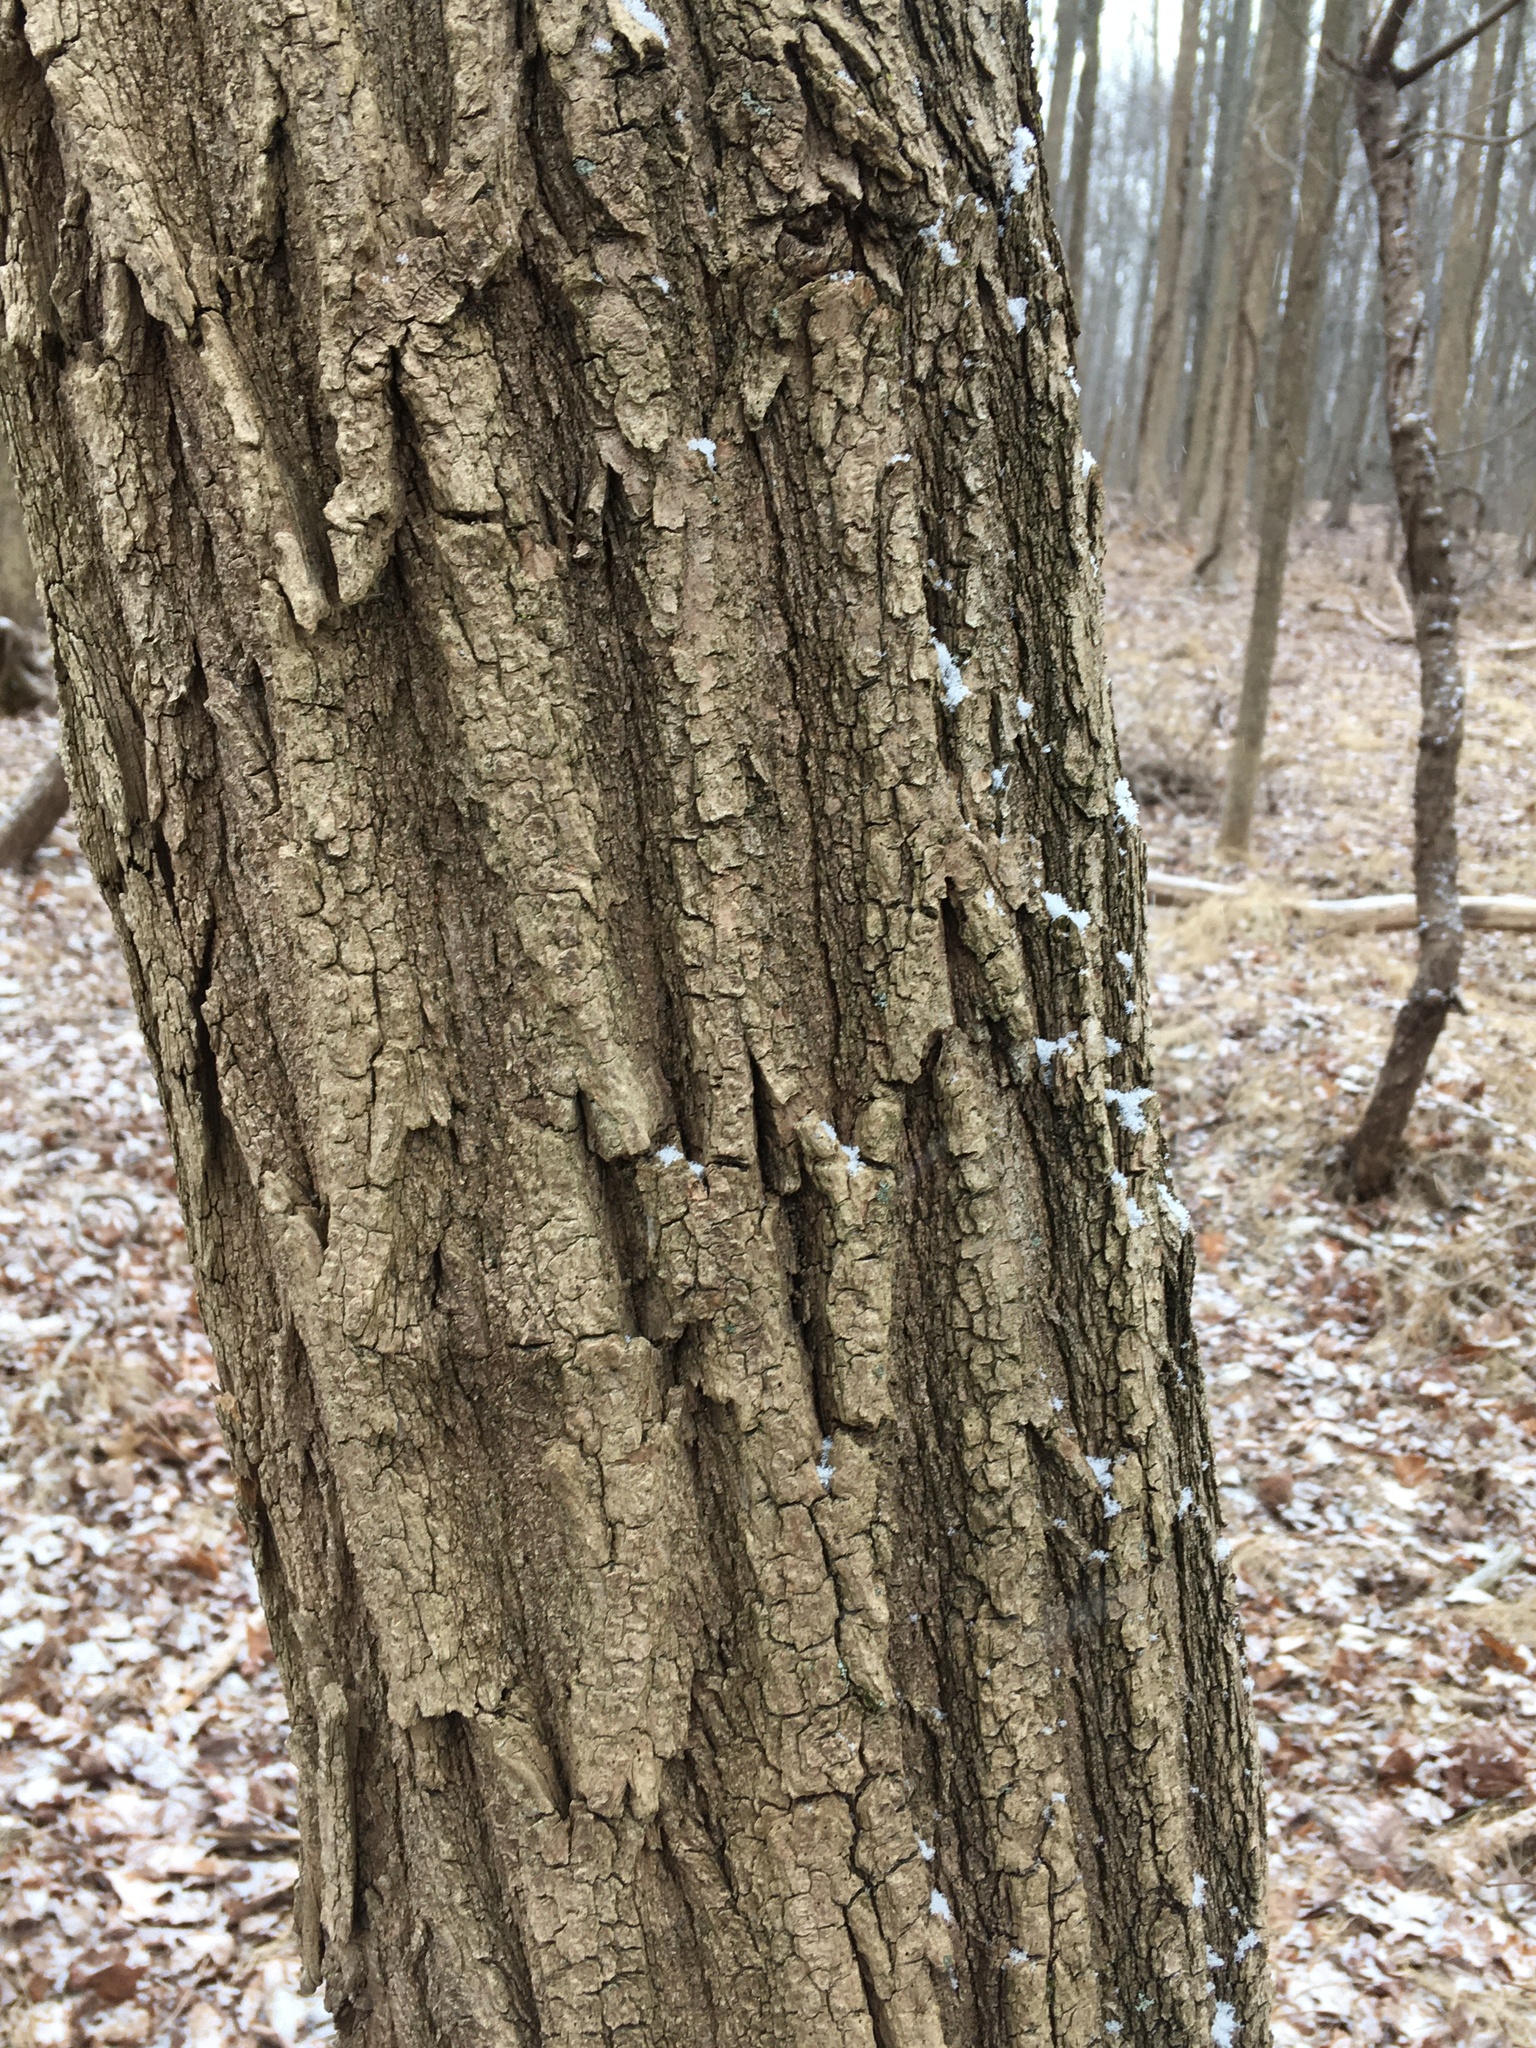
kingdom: Plantae
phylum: Tracheophyta
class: Magnoliopsida
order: Fabales
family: Fabaceae
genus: Robinia
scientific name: Robinia pseudoacacia
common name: Black locust
